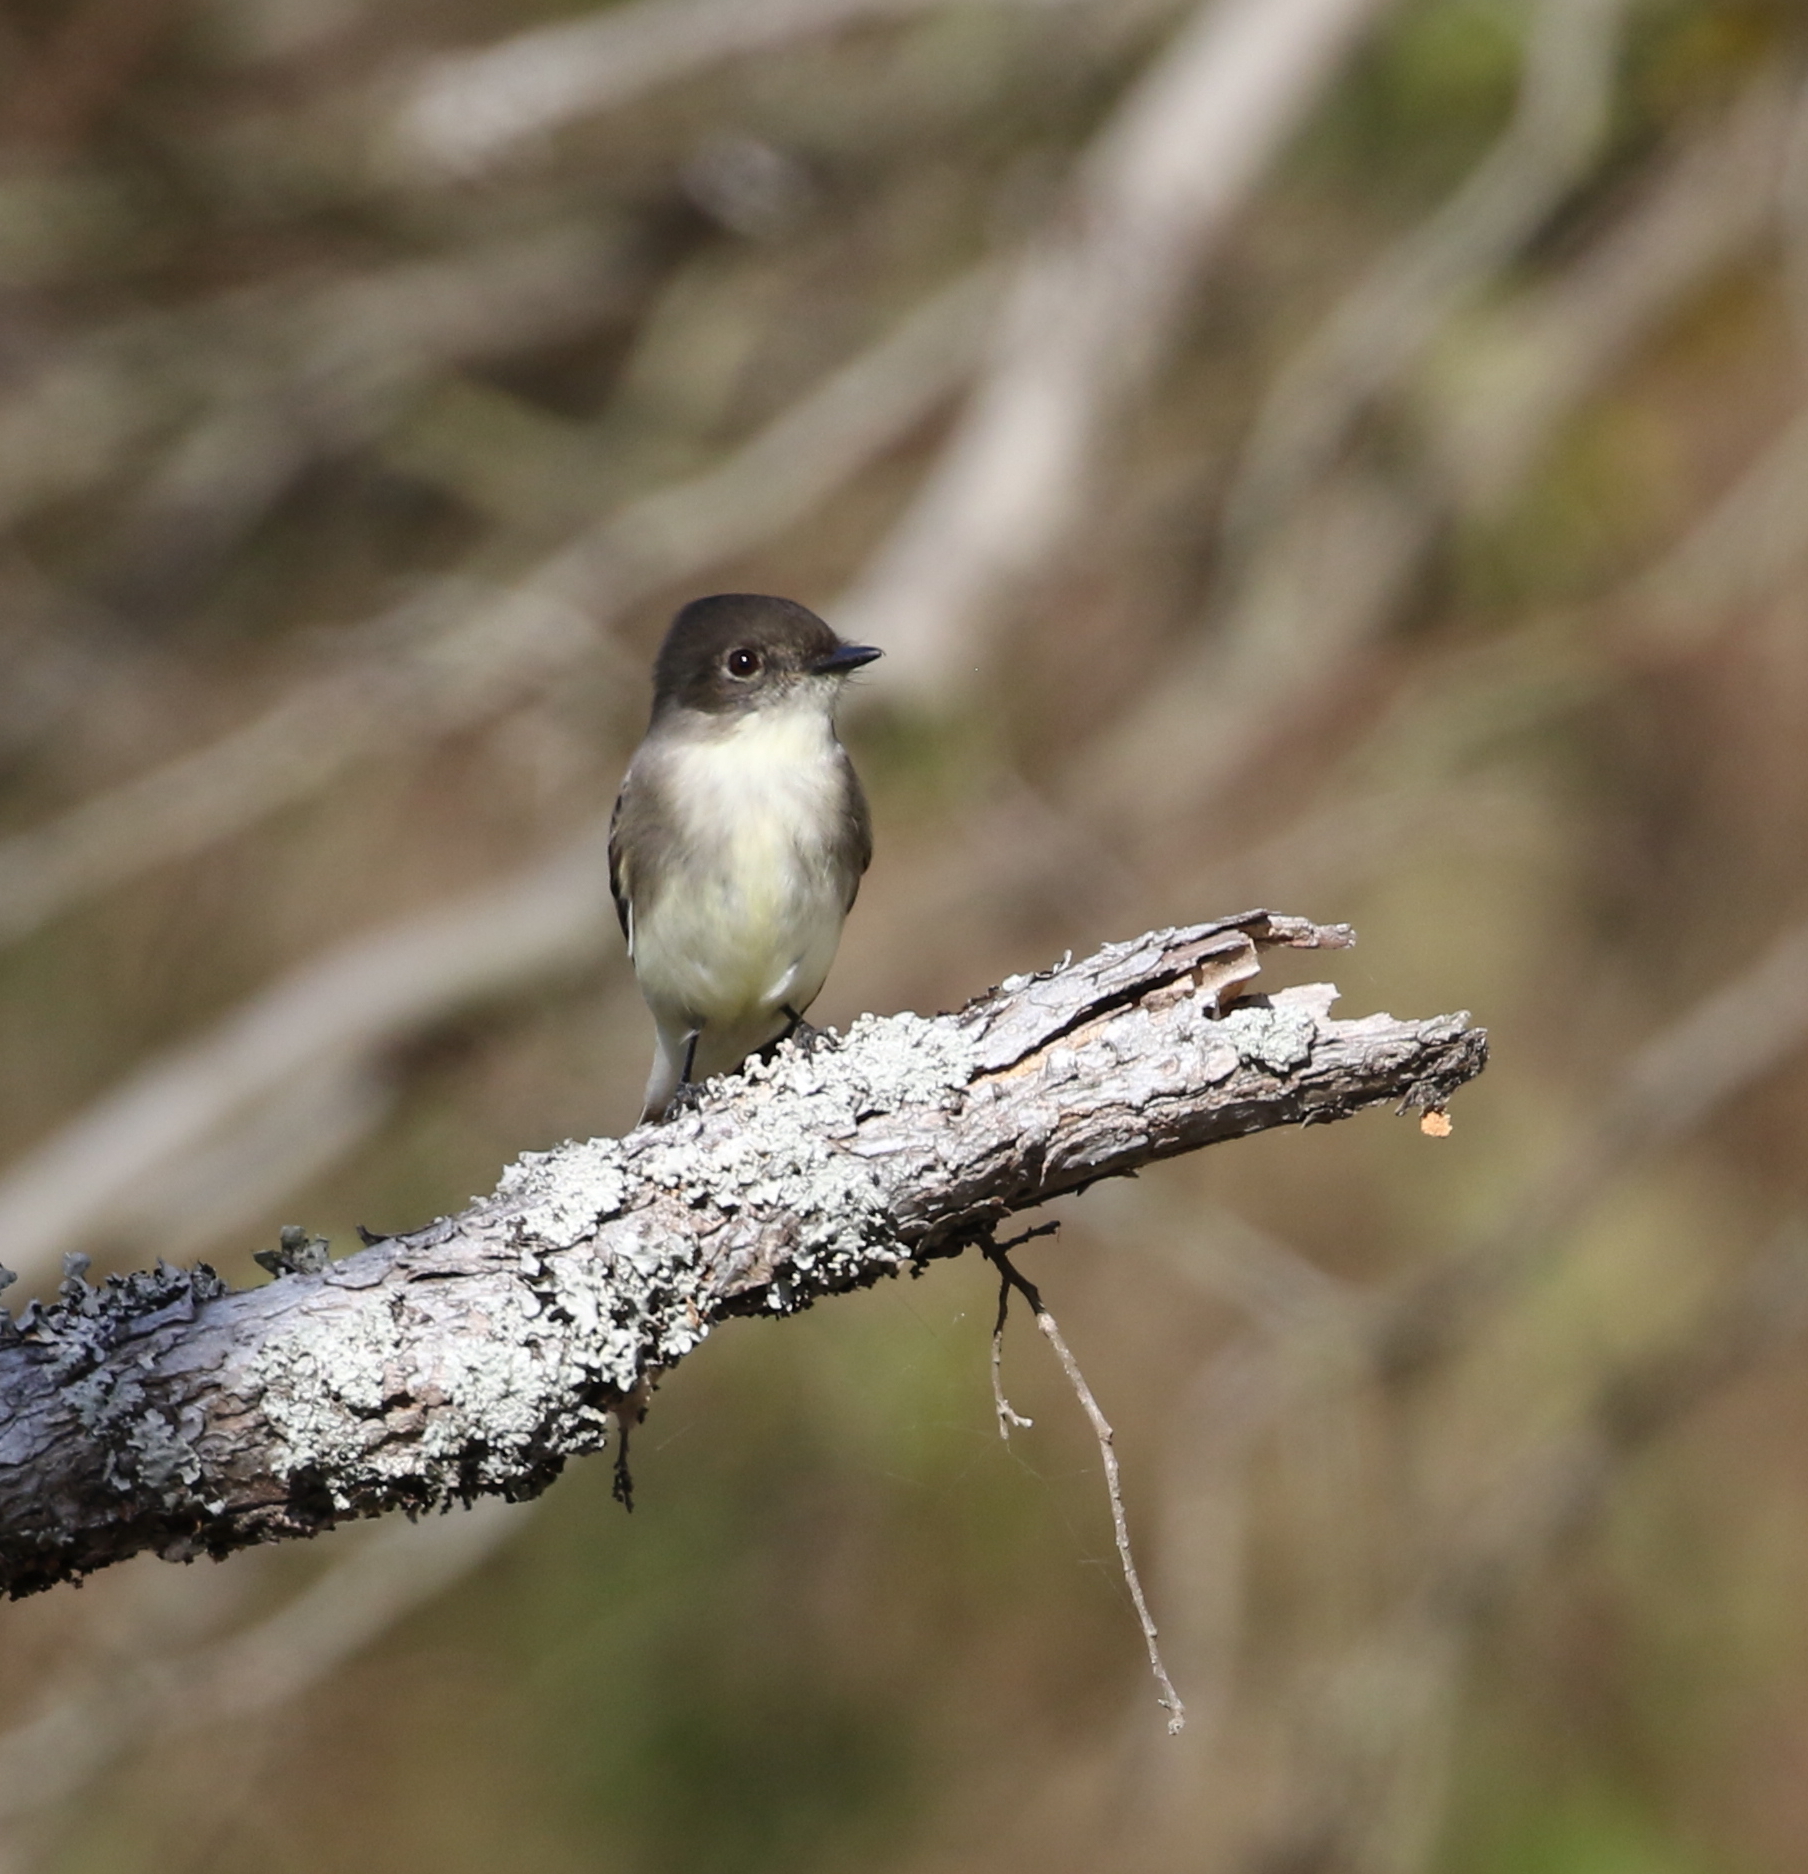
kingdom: Animalia
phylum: Chordata
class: Aves
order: Passeriformes
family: Tyrannidae
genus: Sayornis
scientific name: Sayornis phoebe
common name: Eastern phoebe
